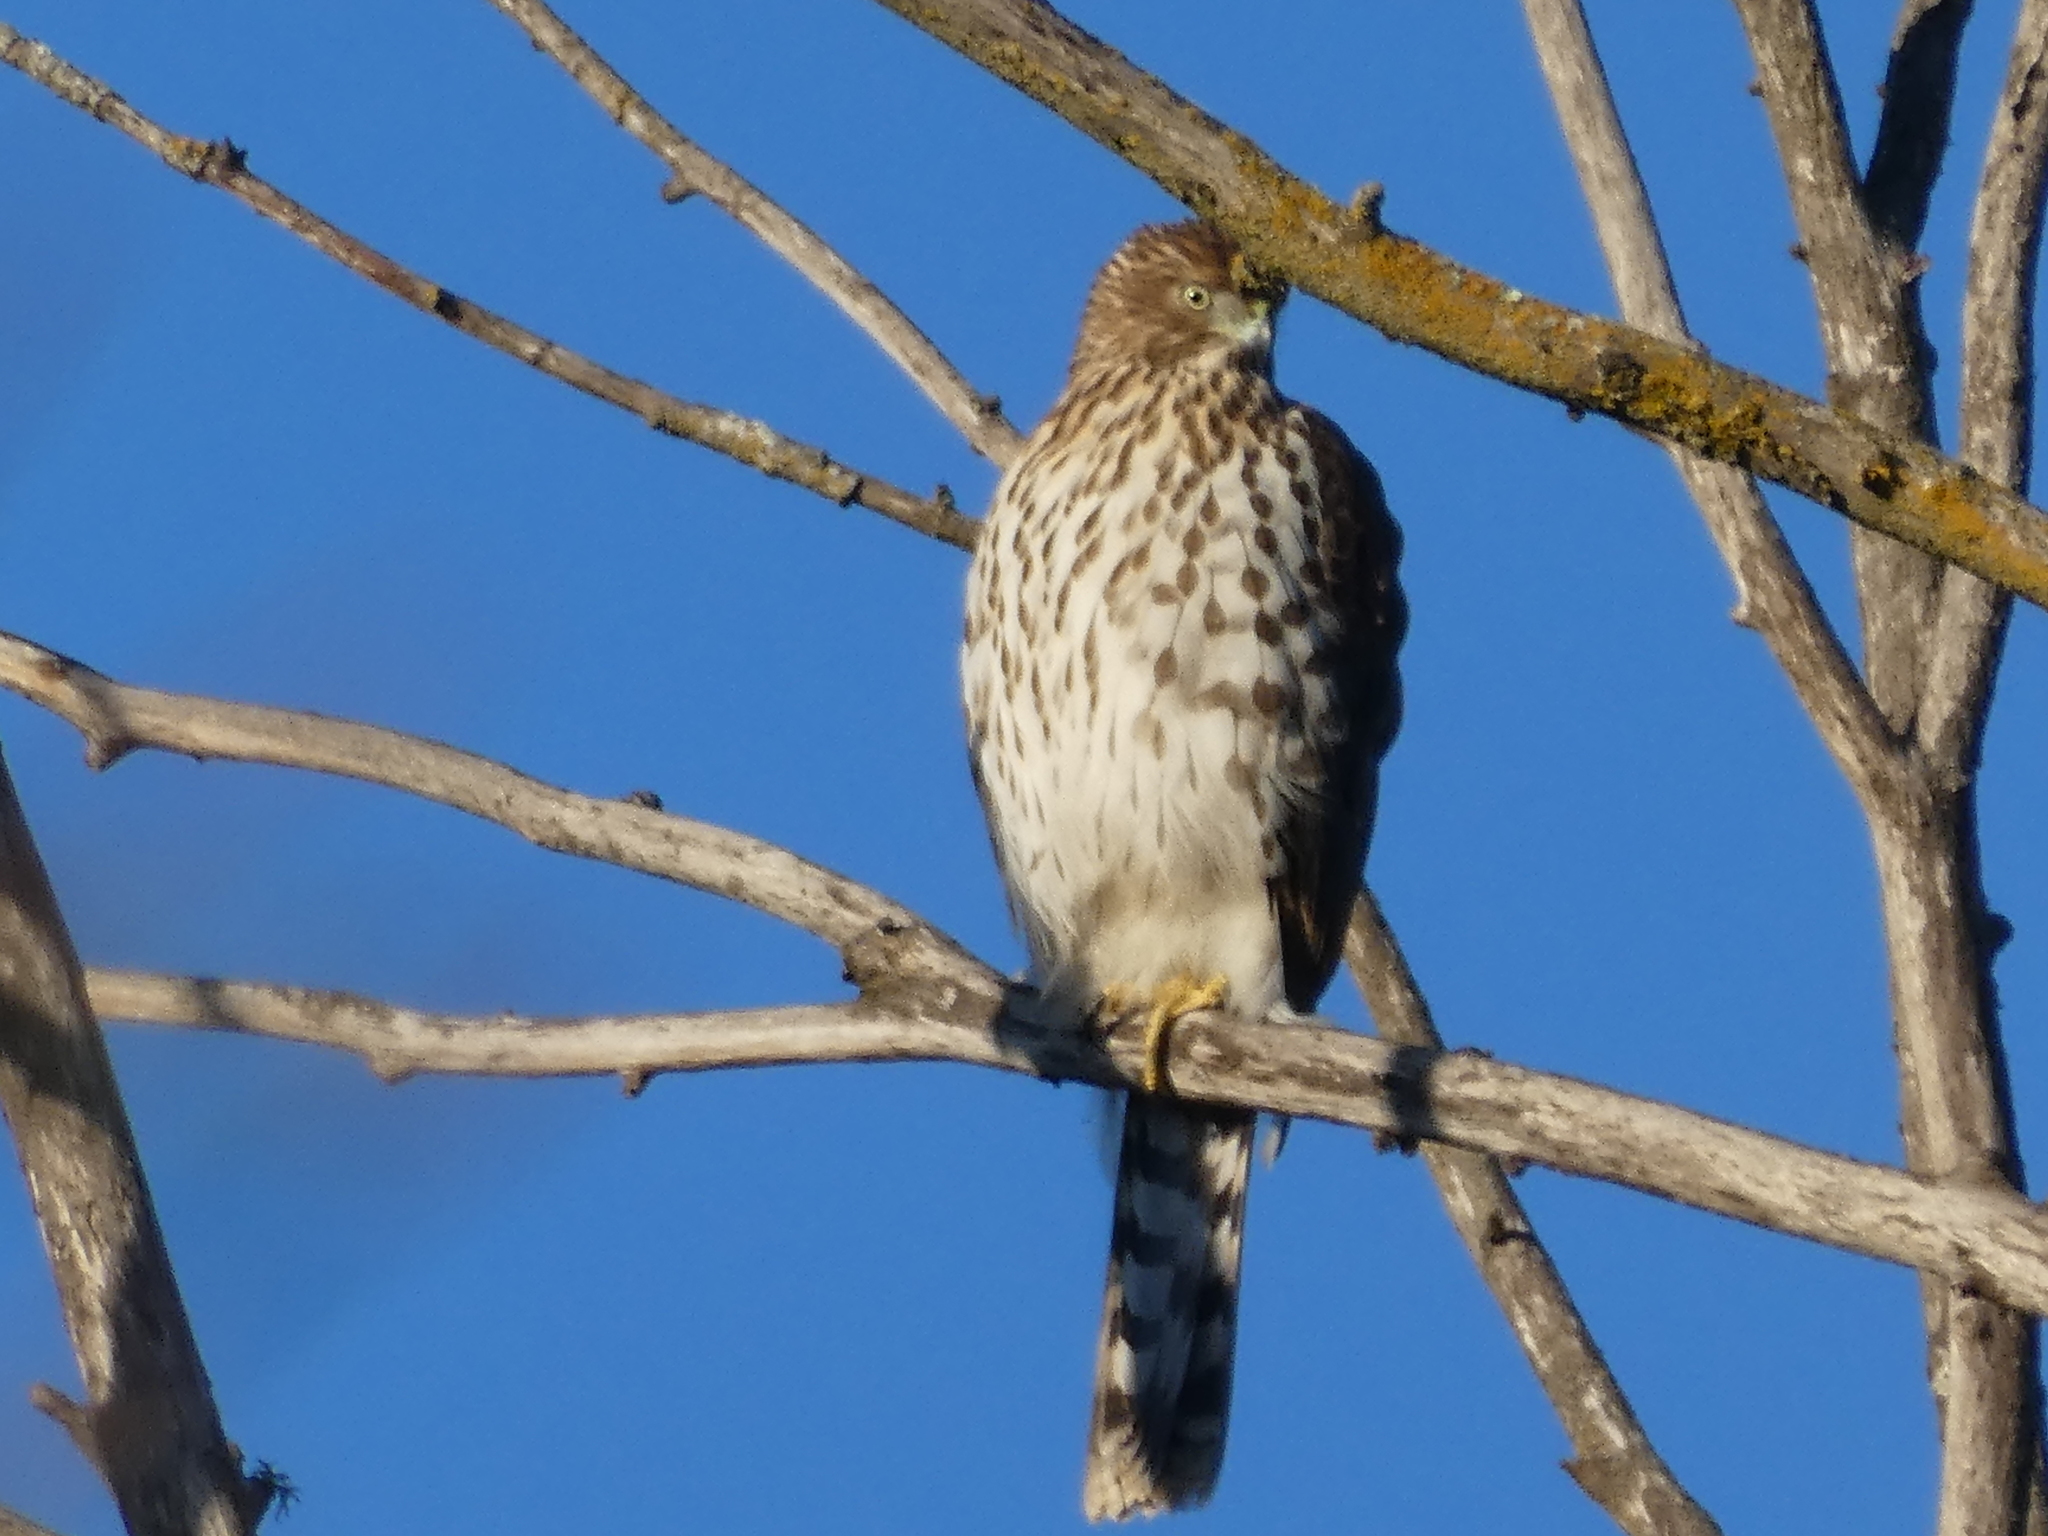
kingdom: Animalia
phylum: Chordata
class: Aves
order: Accipitriformes
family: Accipitridae
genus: Accipiter
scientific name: Accipiter cooperii
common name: Cooper's hawk
